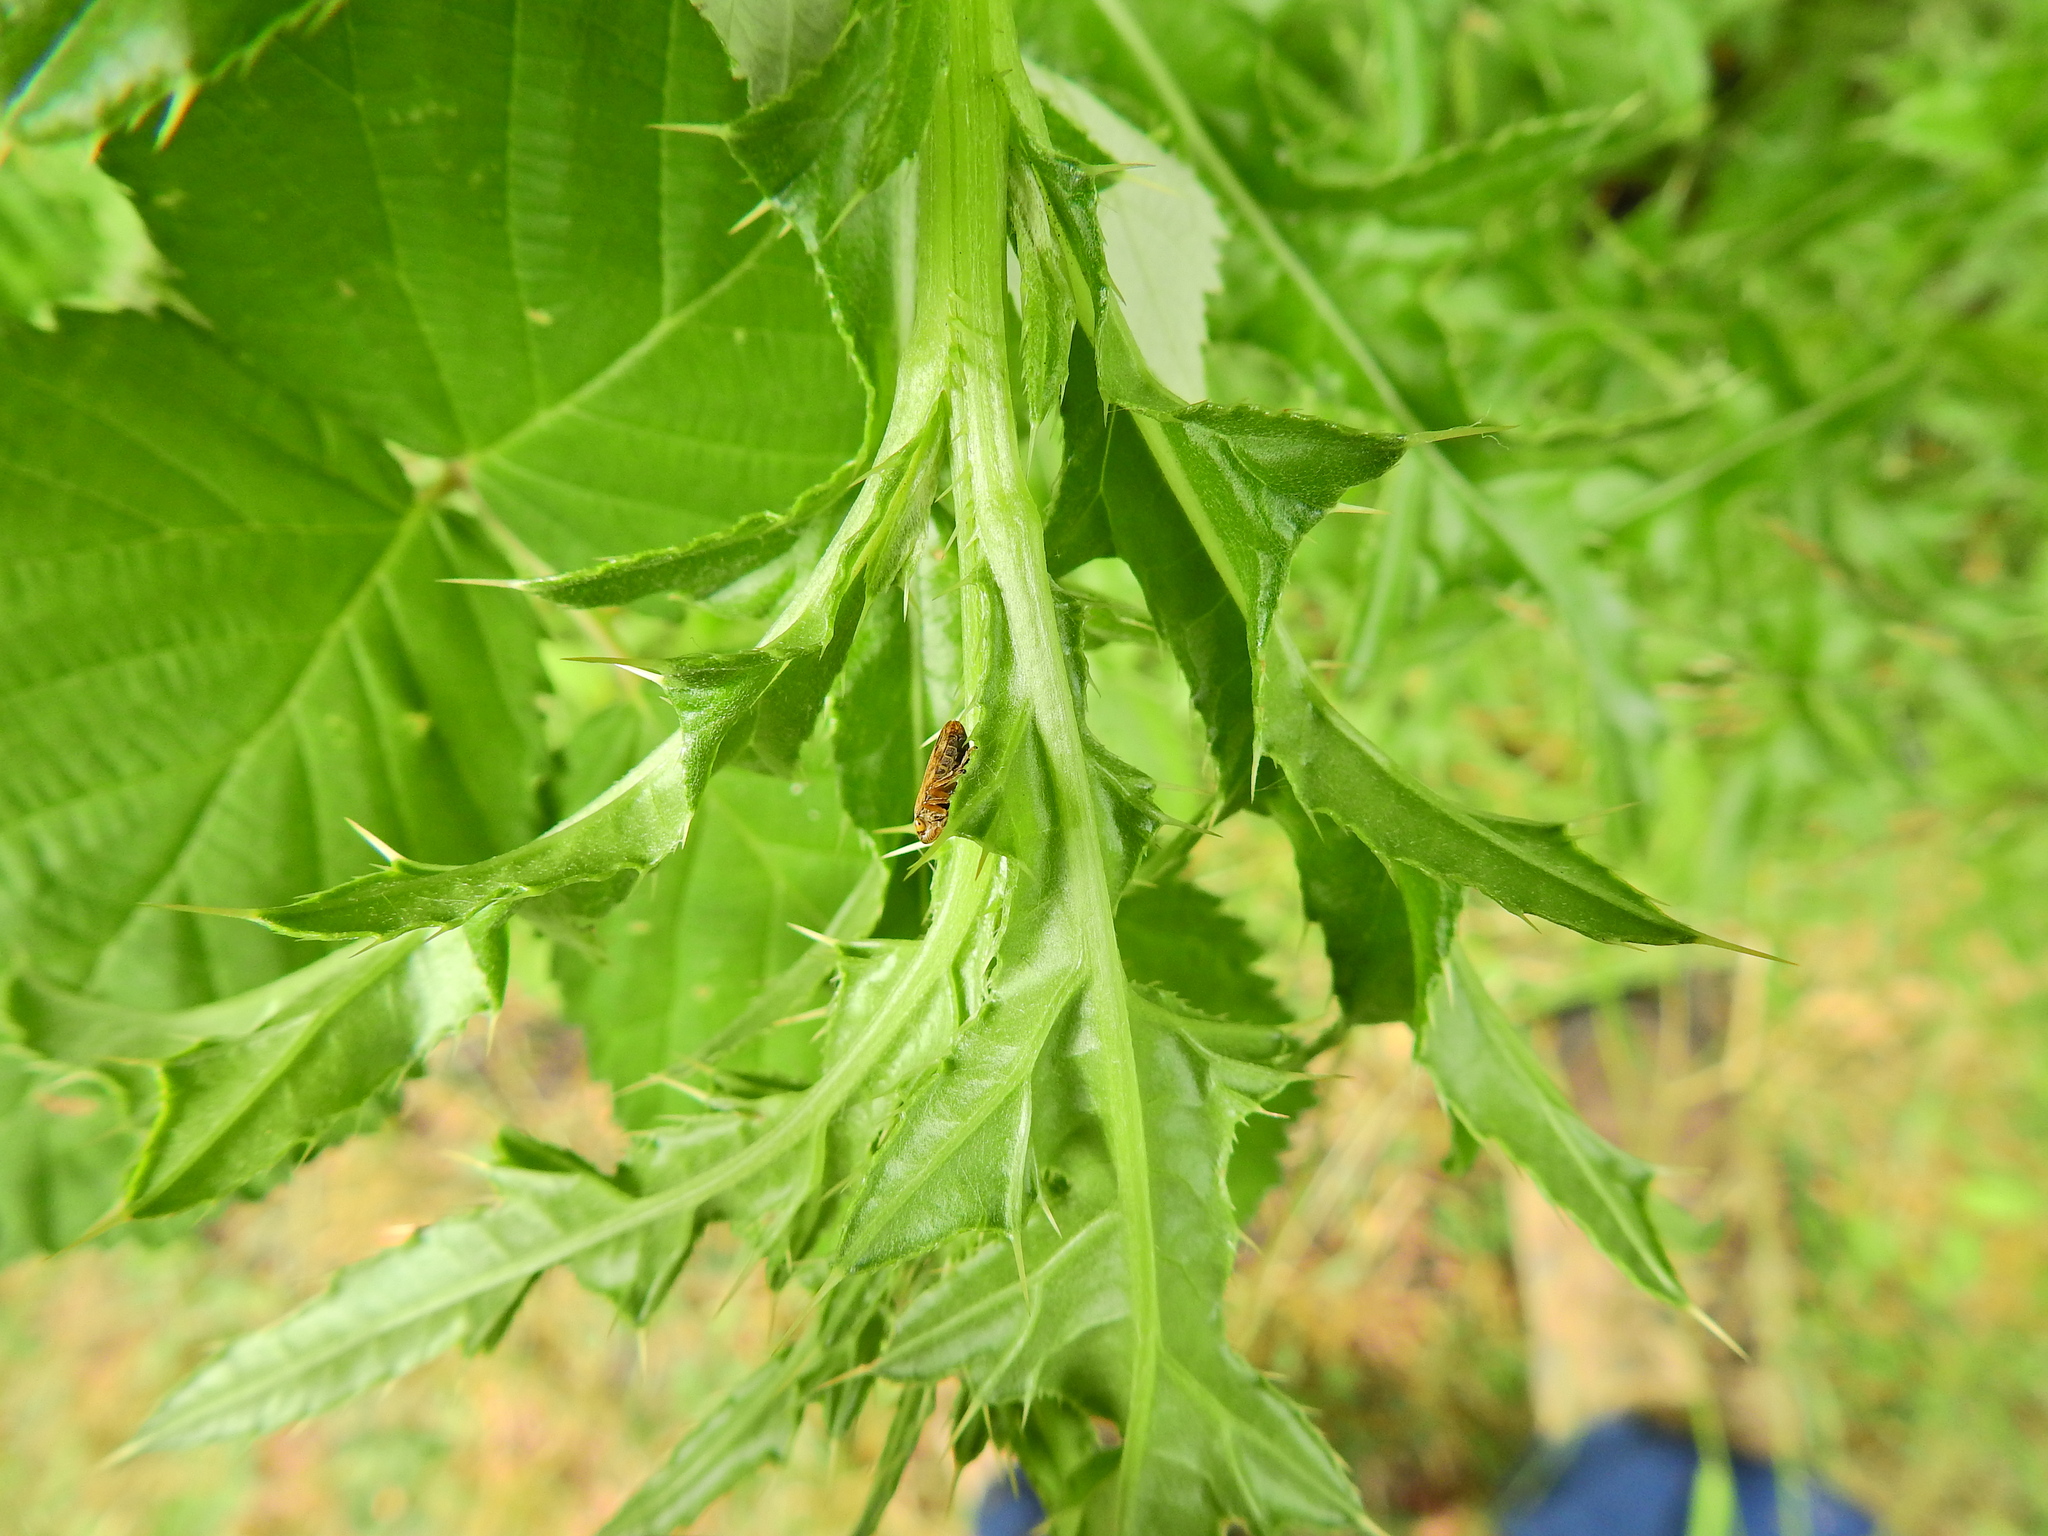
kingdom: Animalia
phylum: Arthropoda
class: Insecta
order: Hemiptera
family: Aphrophoridae
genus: Philaenus
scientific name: Philaenus spumarius
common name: Meadow spittlebug
